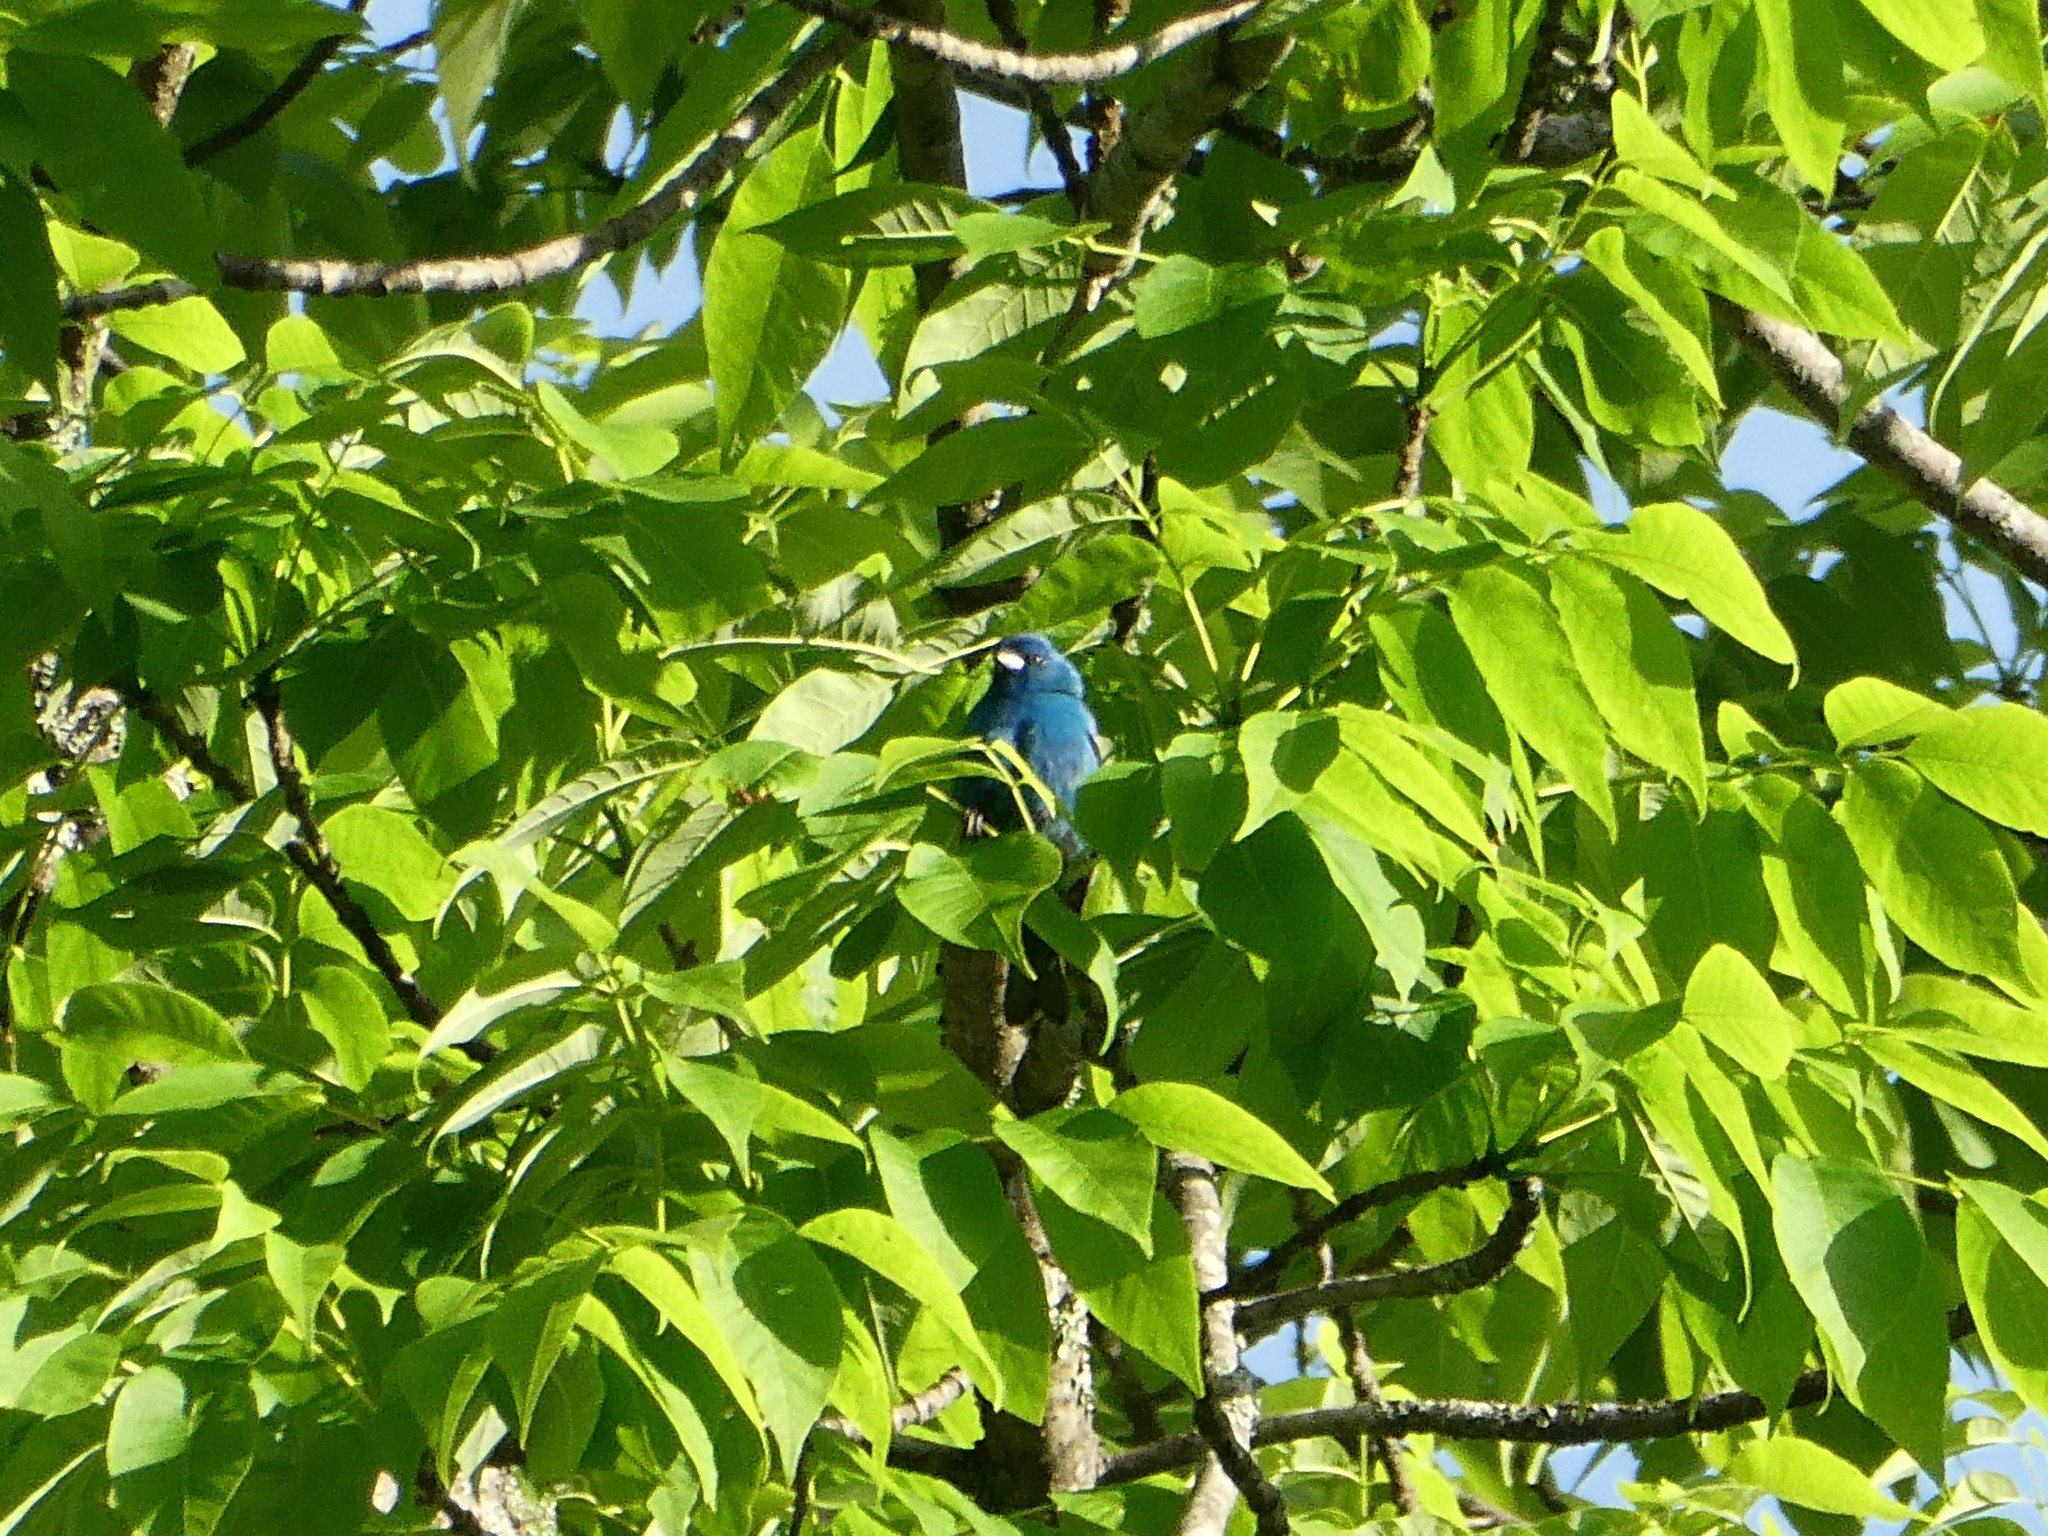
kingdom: Animalia
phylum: Chordata
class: Aves
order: Passeriformes
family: Cardinalidae
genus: Passerina
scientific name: Passerina cyanea
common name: Indigo bunting
